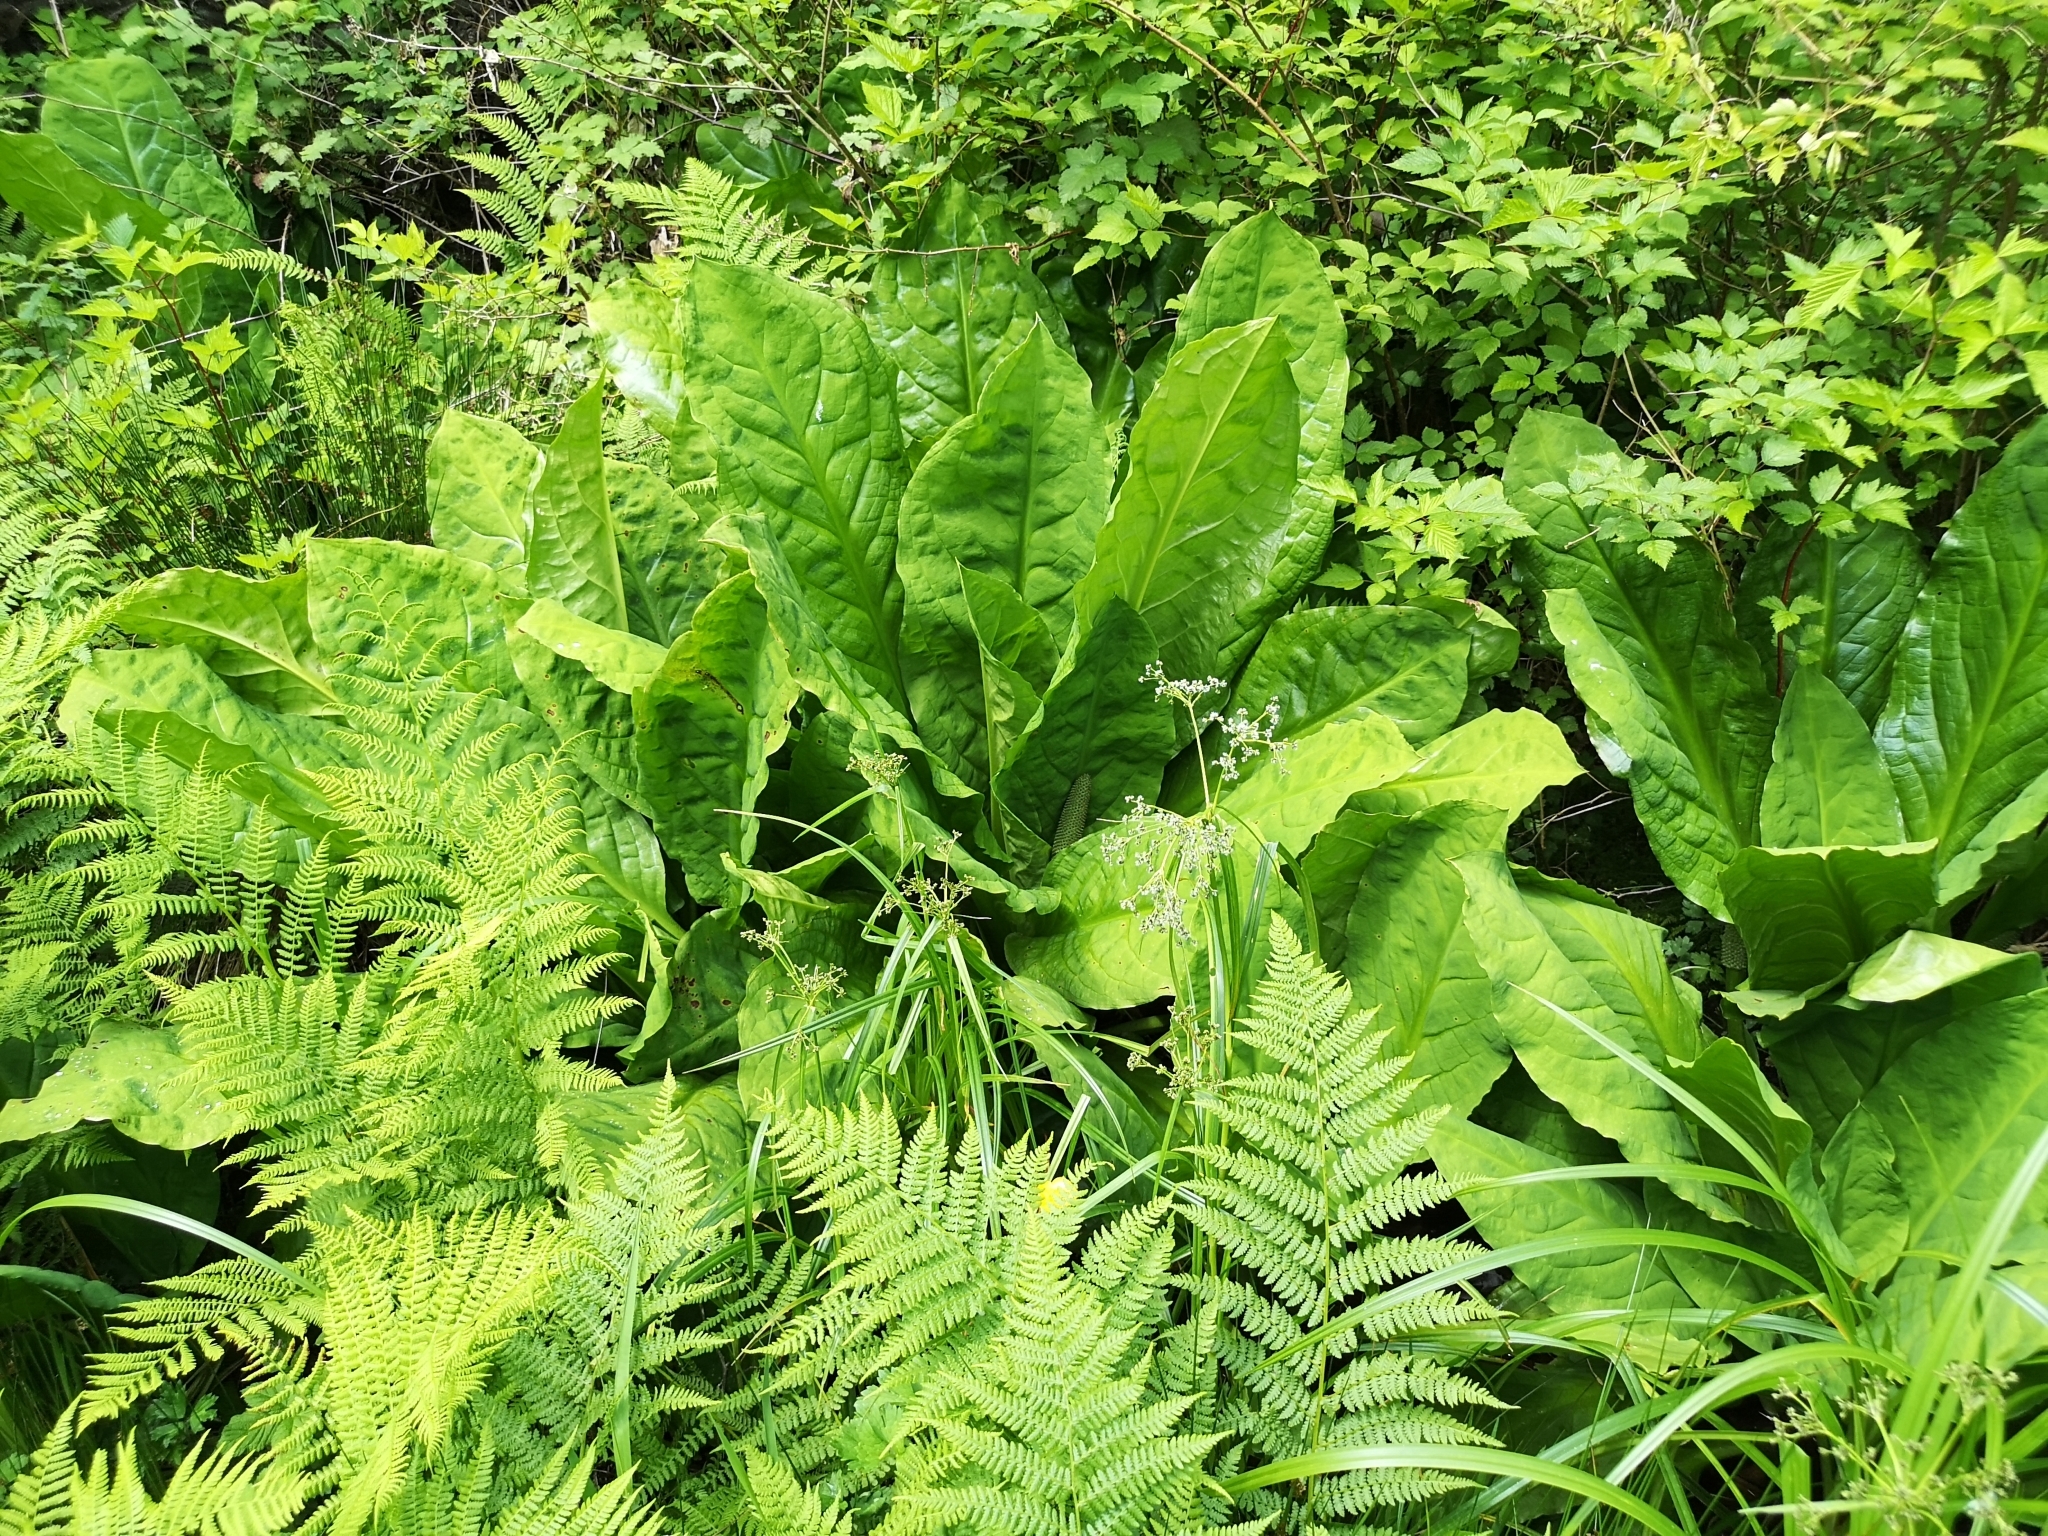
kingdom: Plantae
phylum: Tracheophyta
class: Liliopsida
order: Alismatales
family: Araceae
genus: Lysichiton
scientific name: Lysichiton americanus
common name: American skunk cabbage
